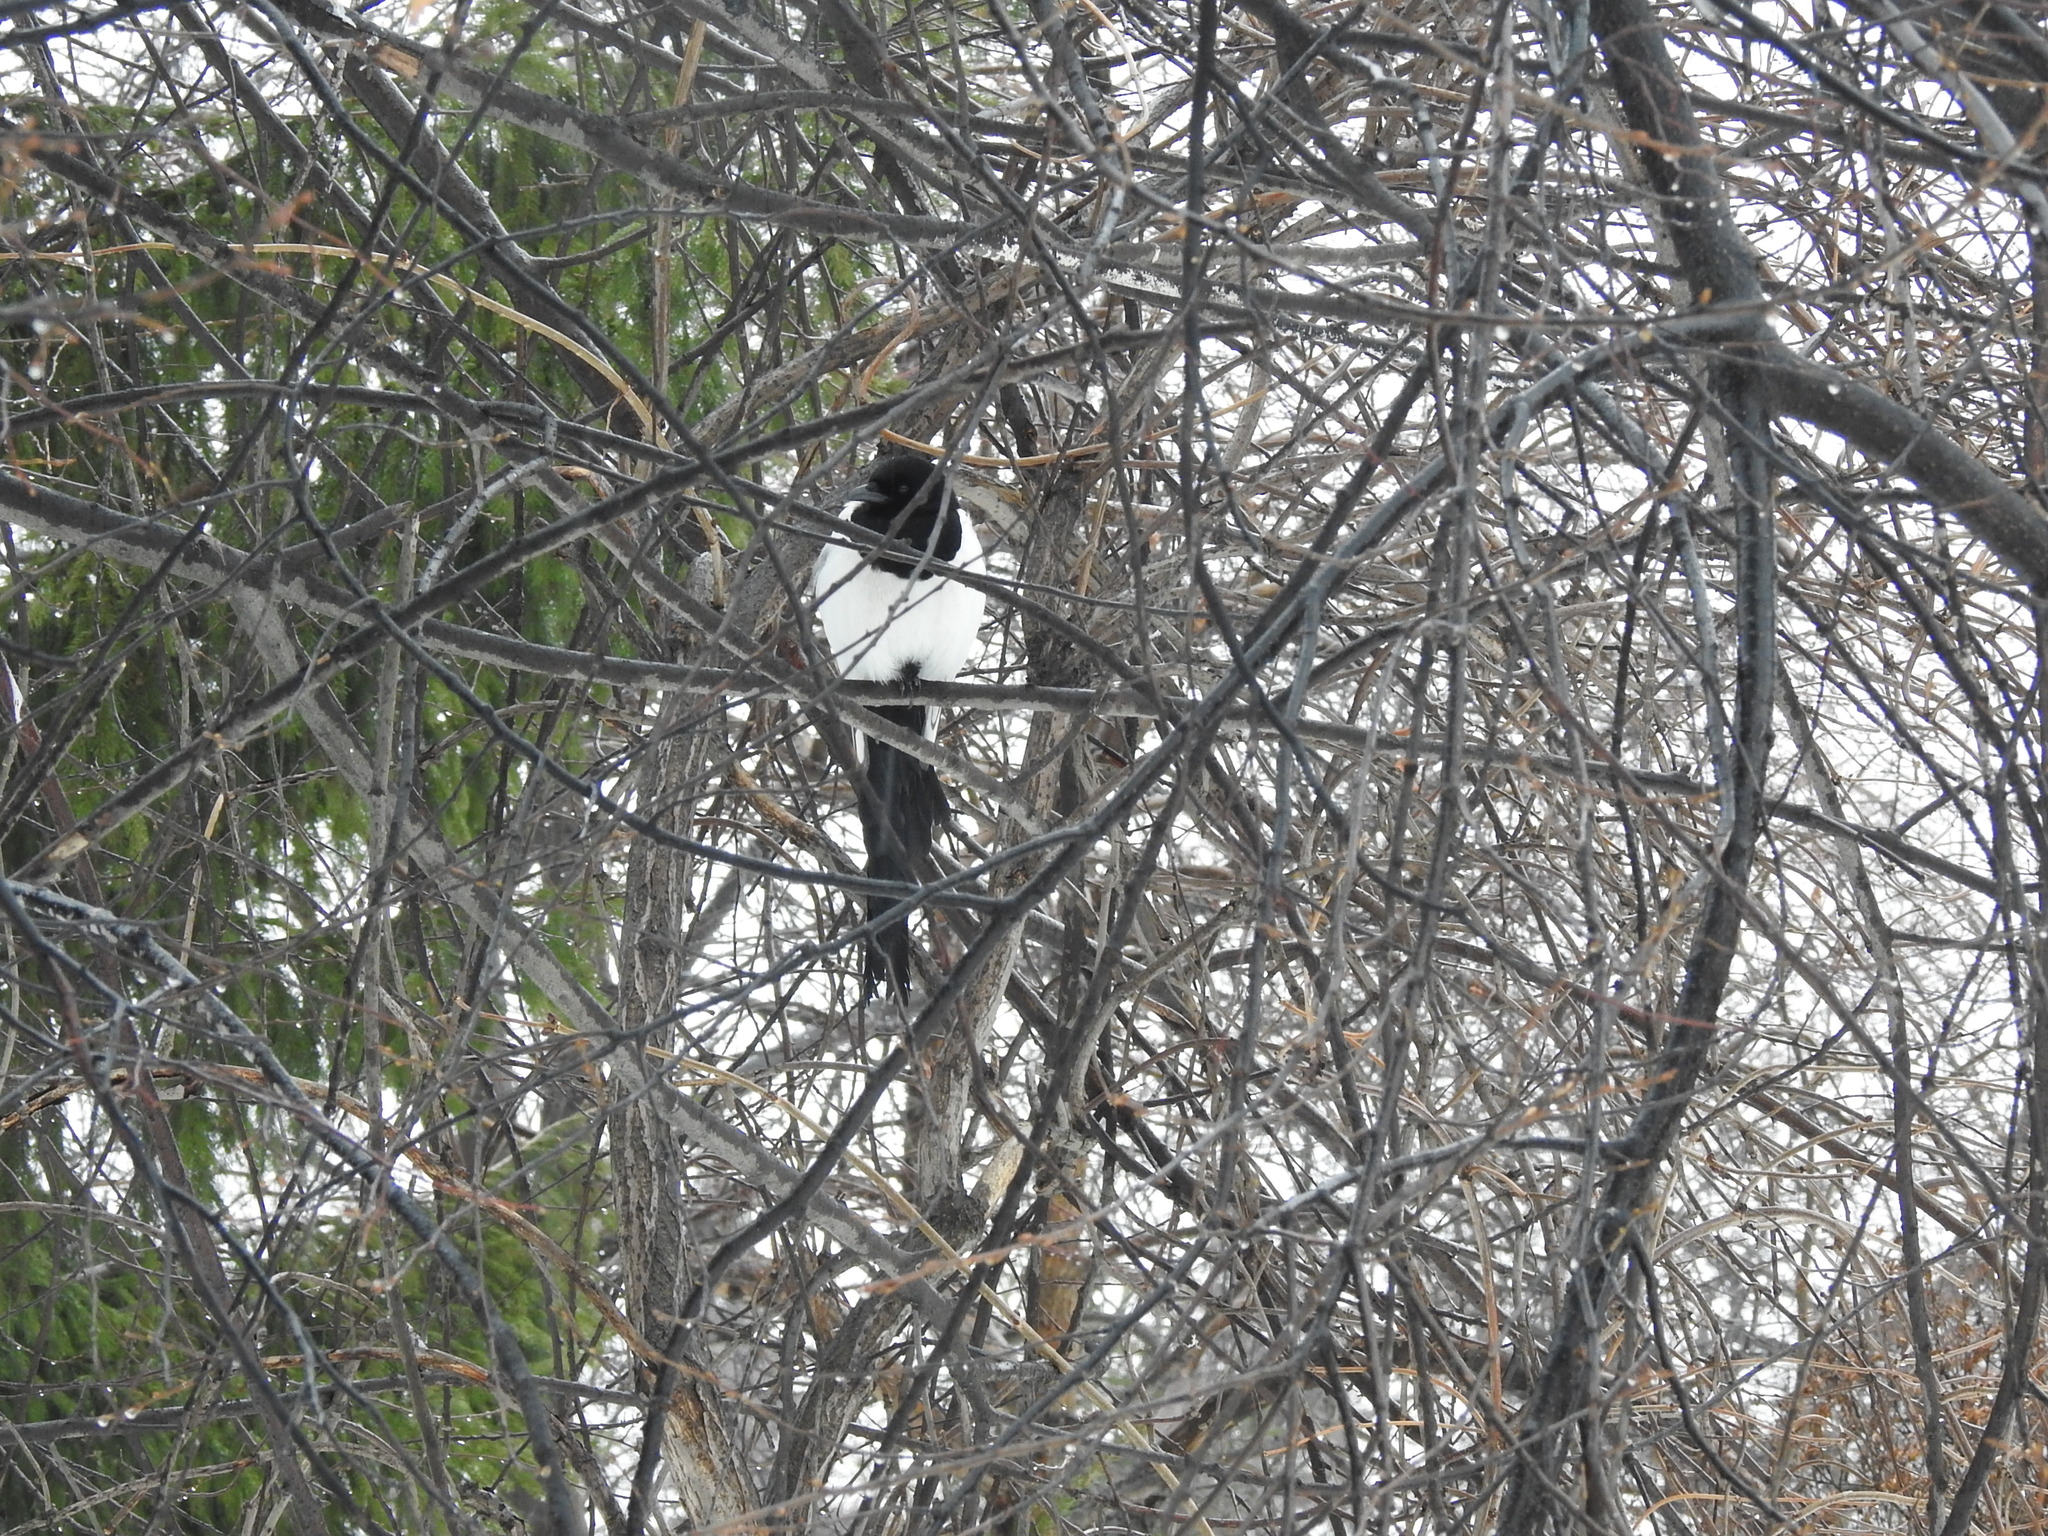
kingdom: Animalia
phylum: Chordata
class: Aves
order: Passeriformes
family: Corvidae
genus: Pica
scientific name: Pica pica
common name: Eurasian magpie
